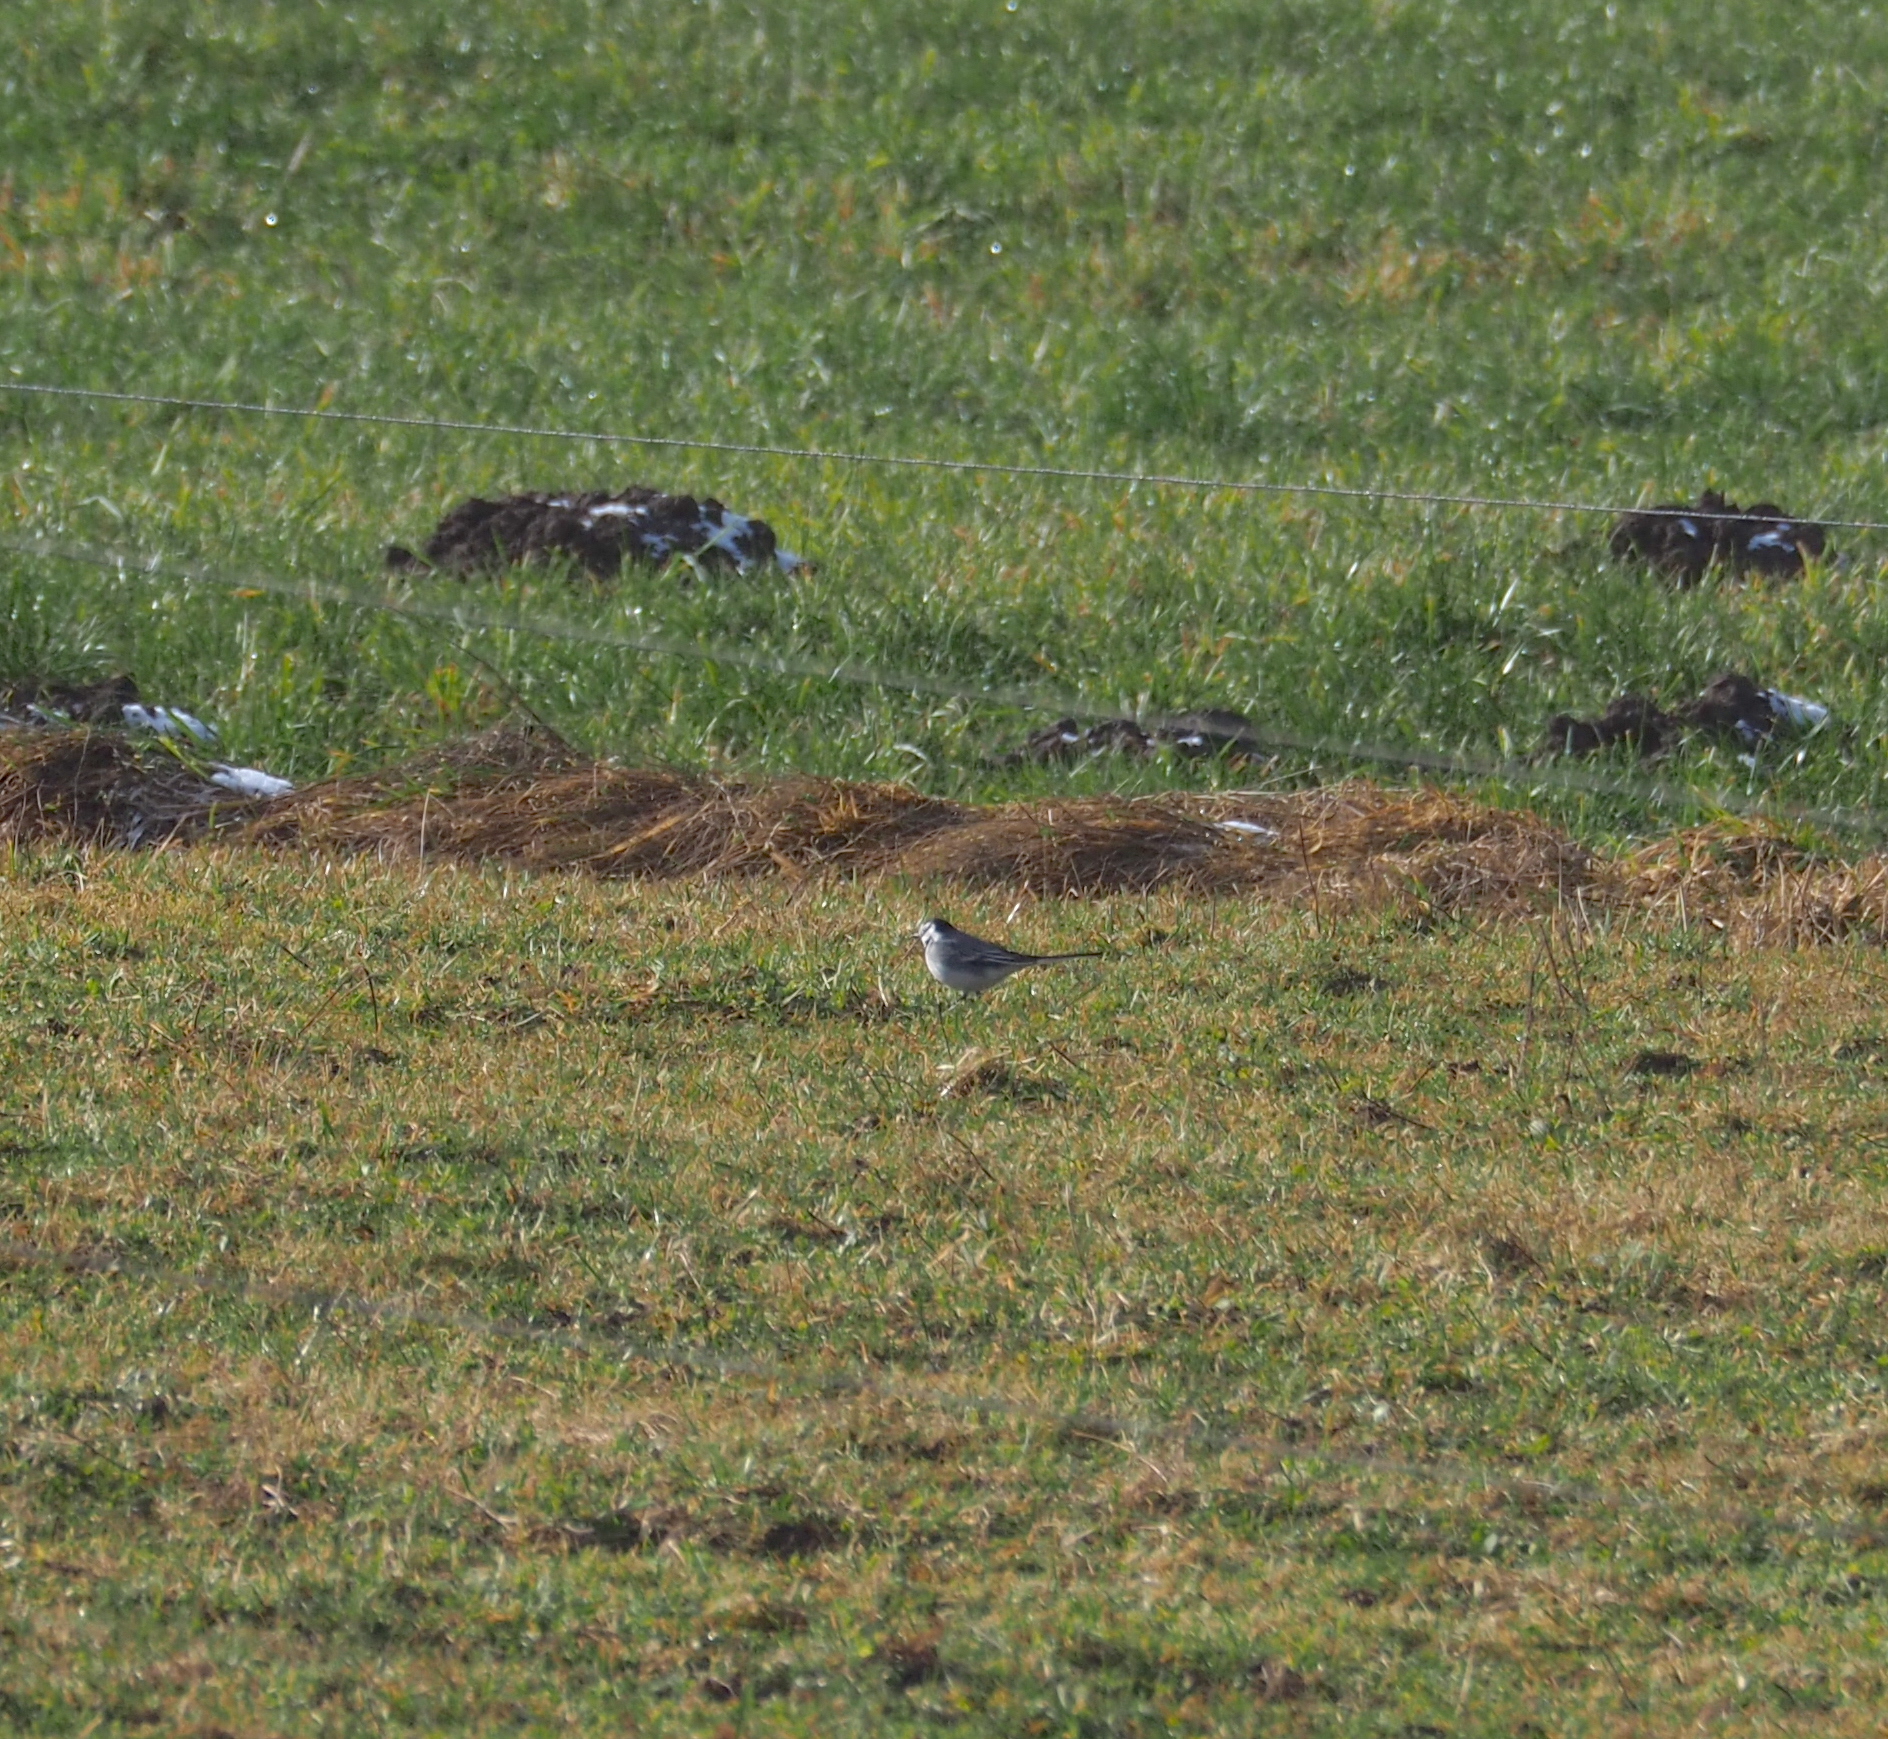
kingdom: Animalia
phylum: Chordata
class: Aves
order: Passeriformes
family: Motacillidae
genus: Motacilla
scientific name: Motacilla alba
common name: White wagtail
